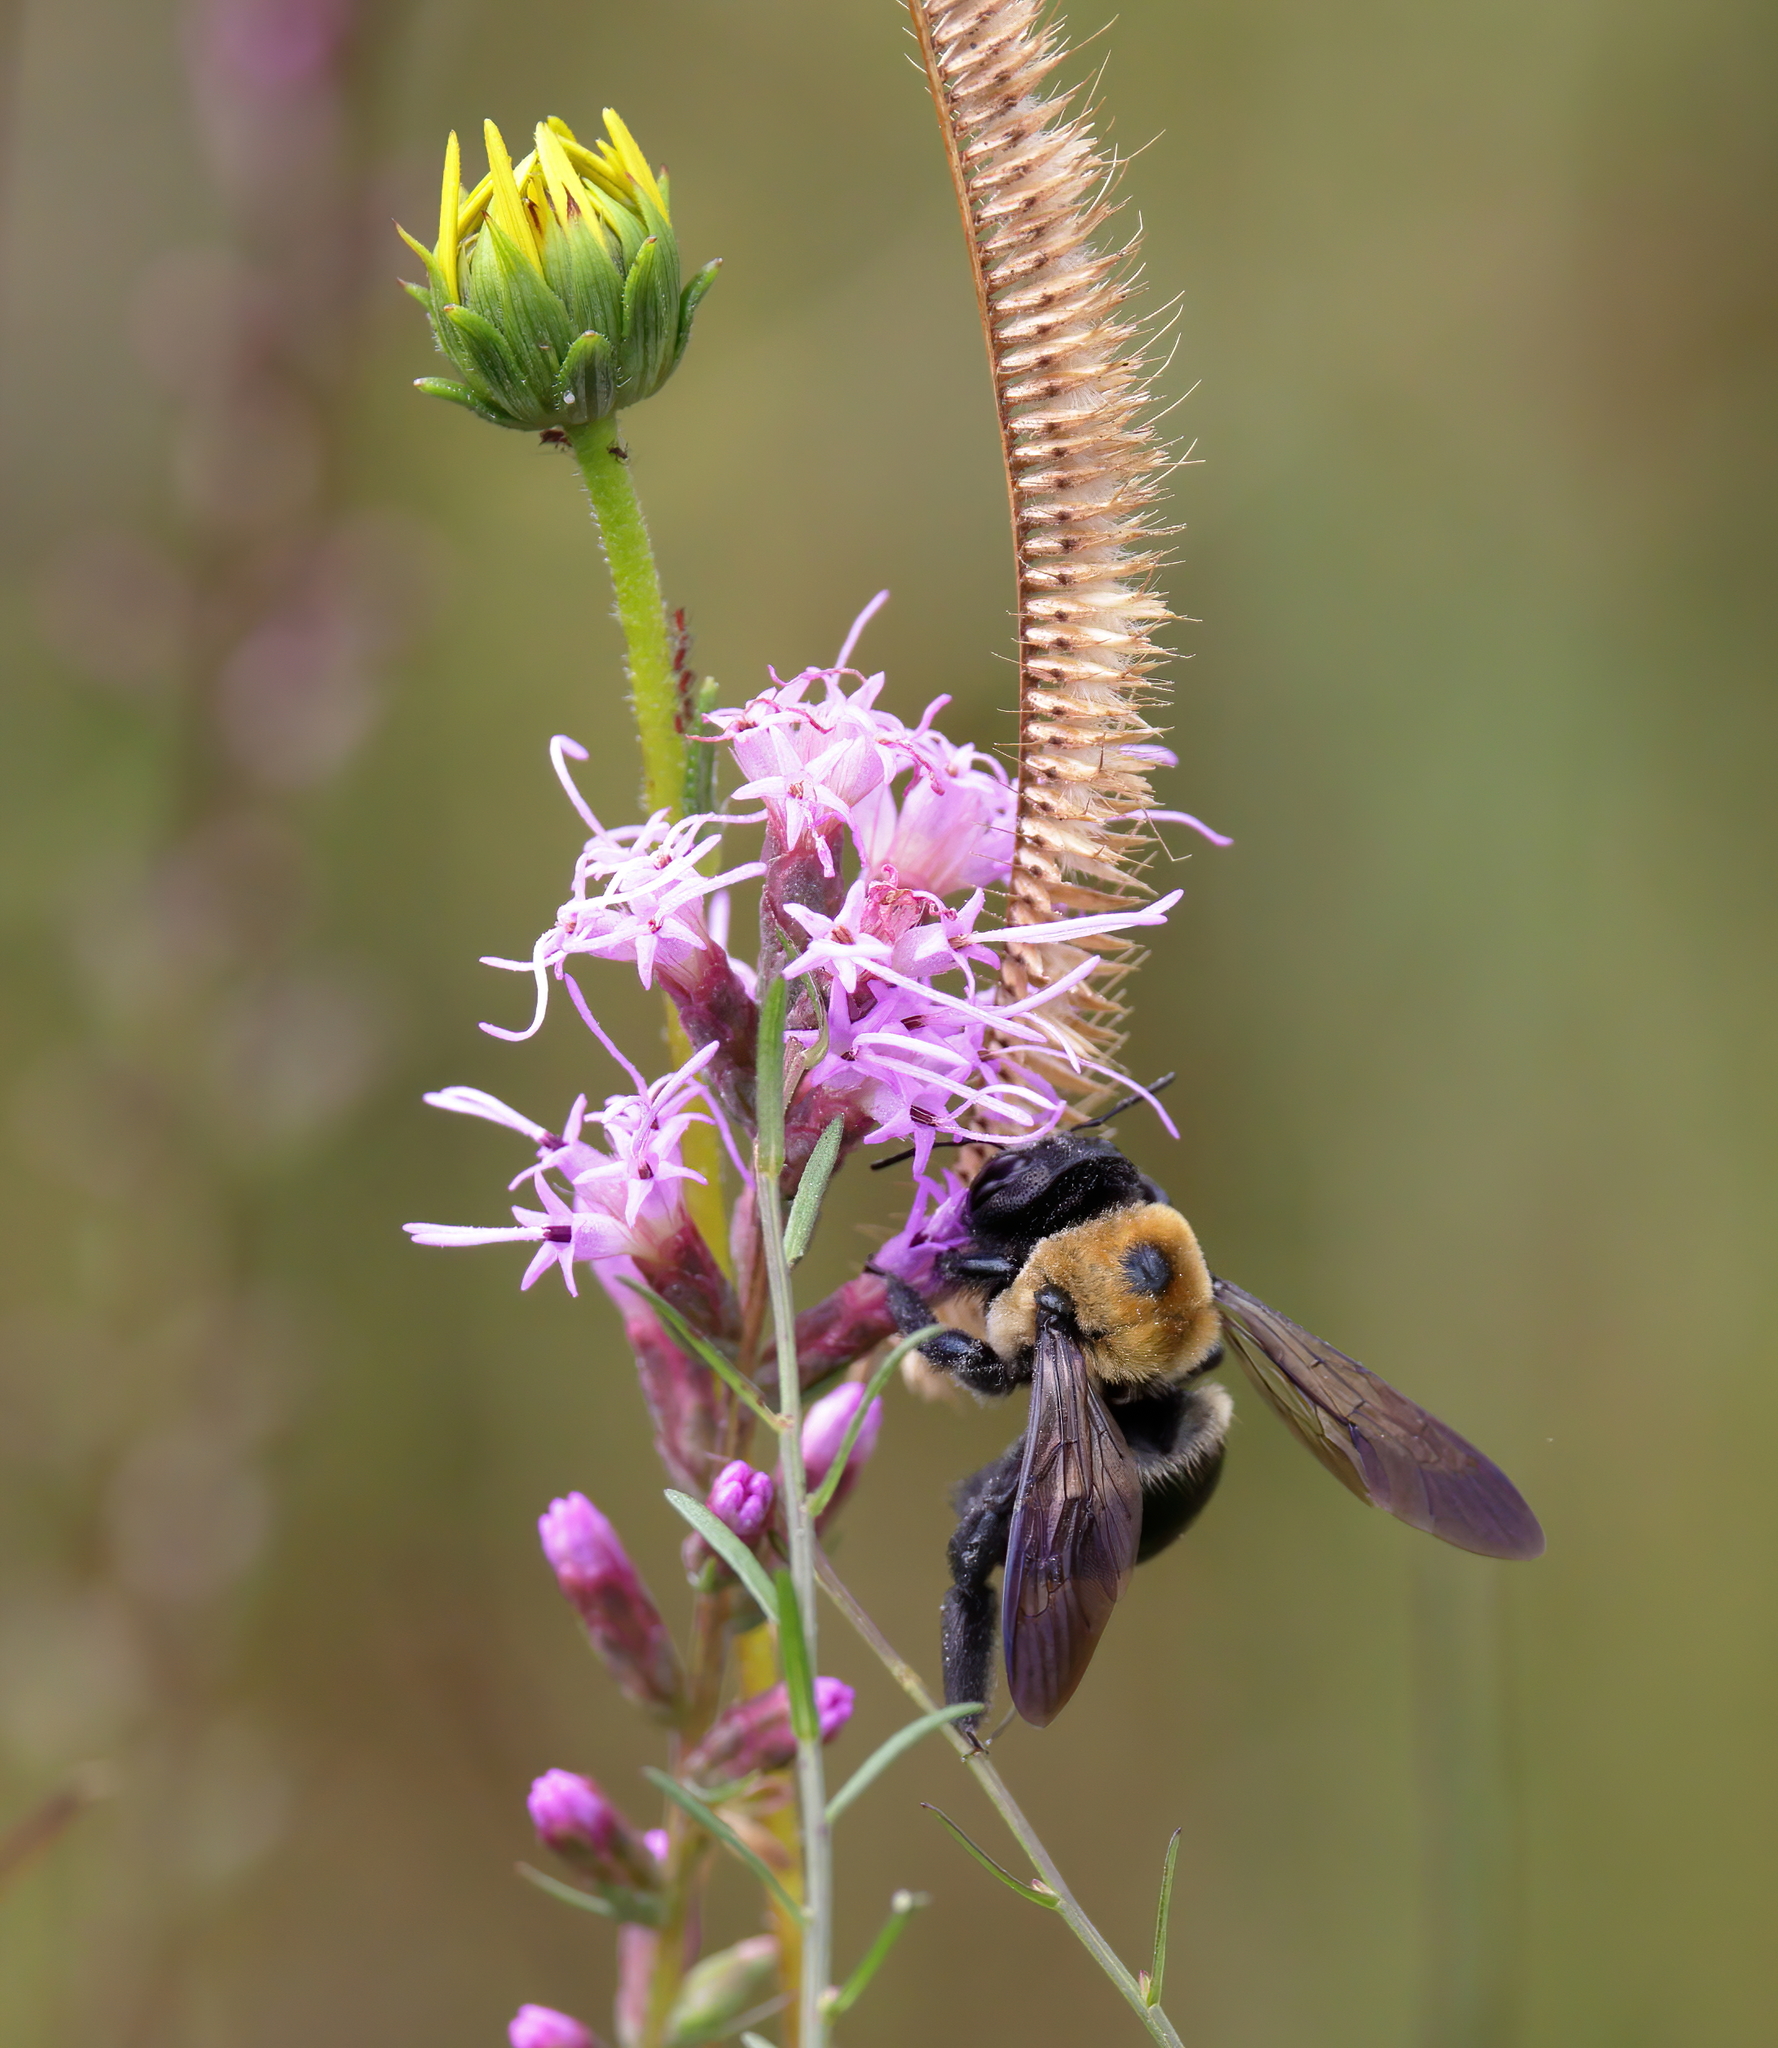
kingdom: Animalia
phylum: Arthropoda
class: Insecta
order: Hymenoptera
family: Apidae
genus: Xylocopa
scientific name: Xylocopa virginica
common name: Carpenter bee
